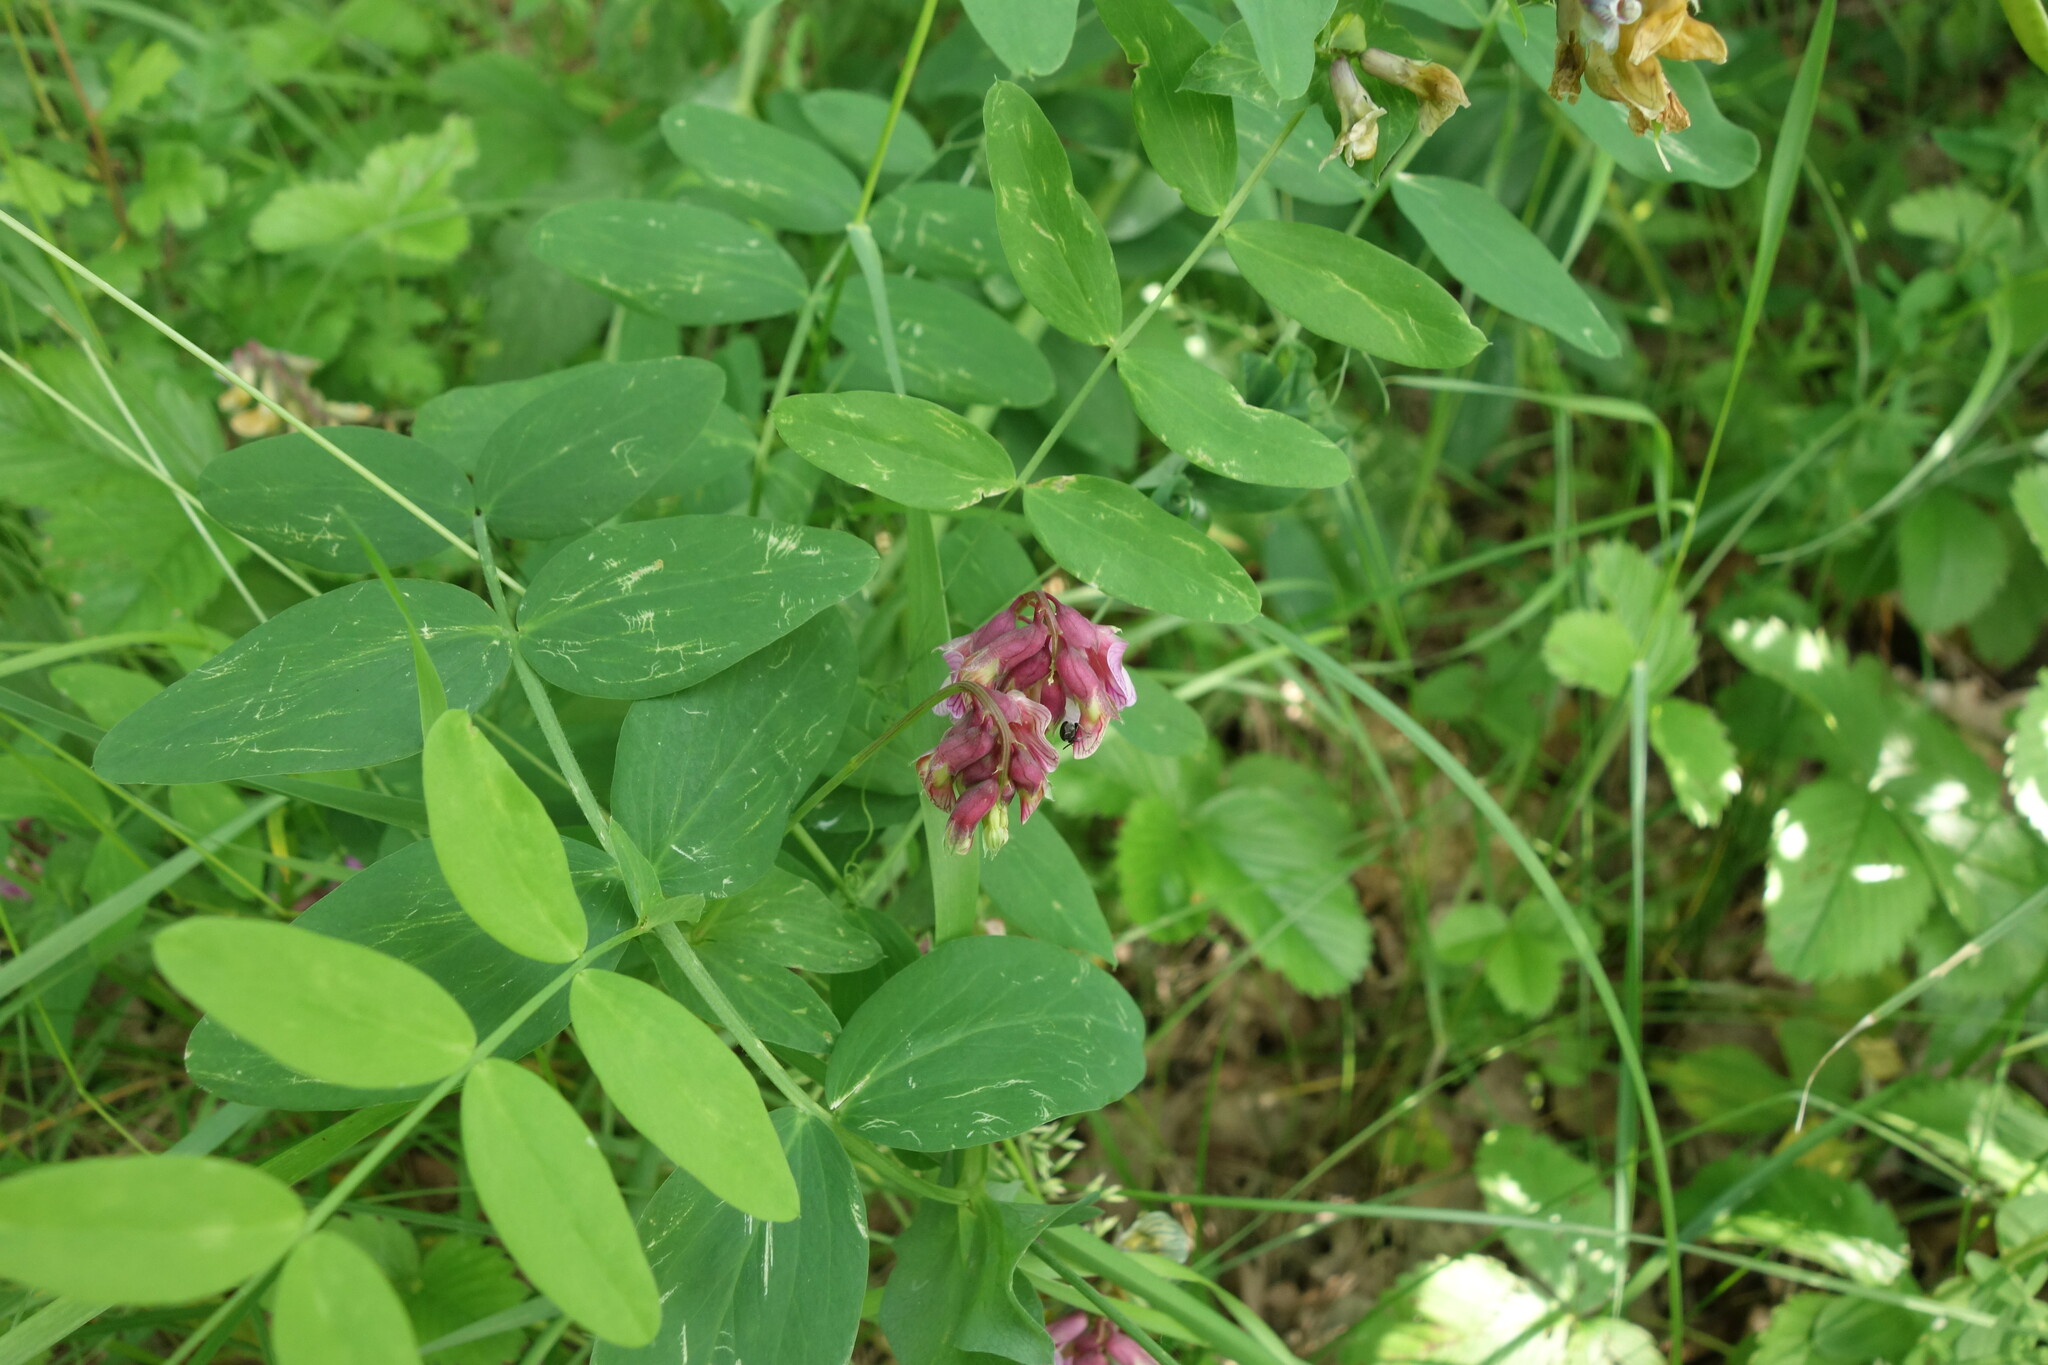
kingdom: Plantae
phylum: Tracheophyta
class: Magnoliopsida
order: Fabales
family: Fabaceae
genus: Lathyrus
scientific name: Lathyrus pisiformis
